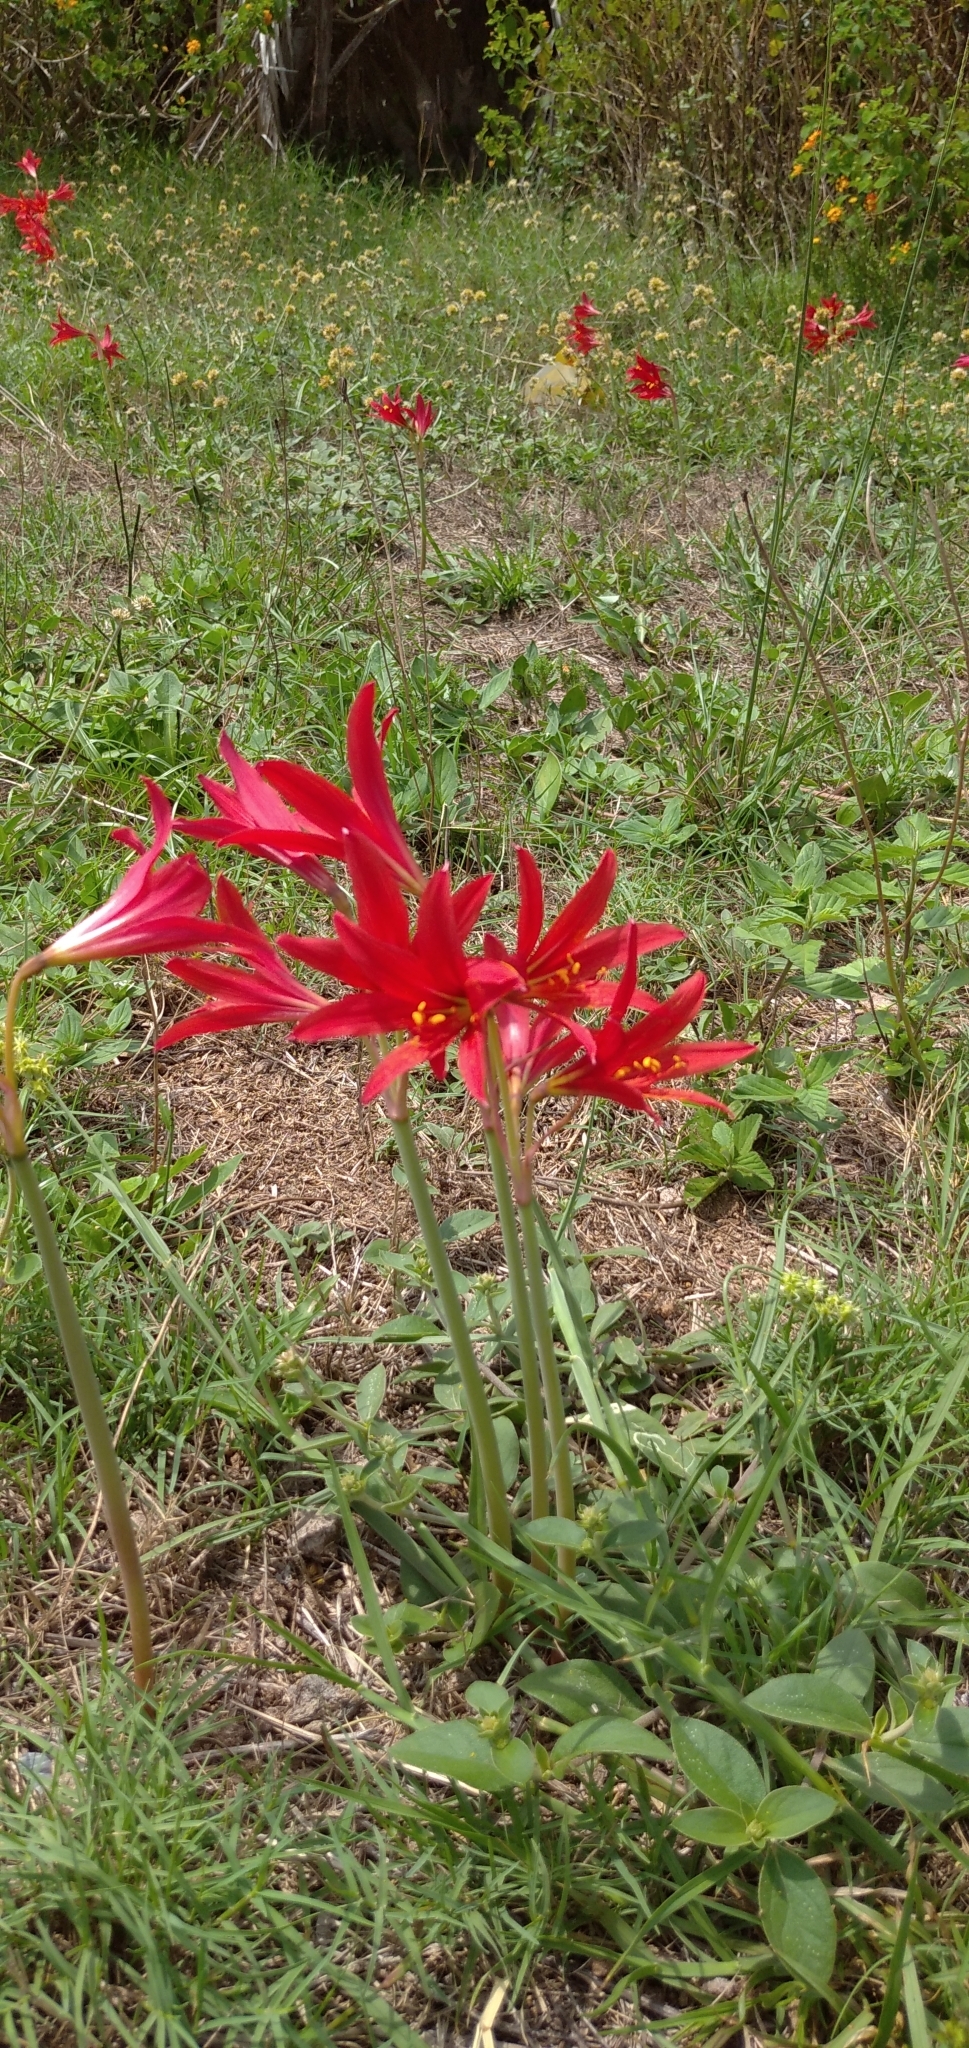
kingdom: Plantae
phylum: Tracheophyta
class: Liliopsida
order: Asparagales
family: Amaryllidaceae
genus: Zephyranthes
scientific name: Zephyranthes bifida
